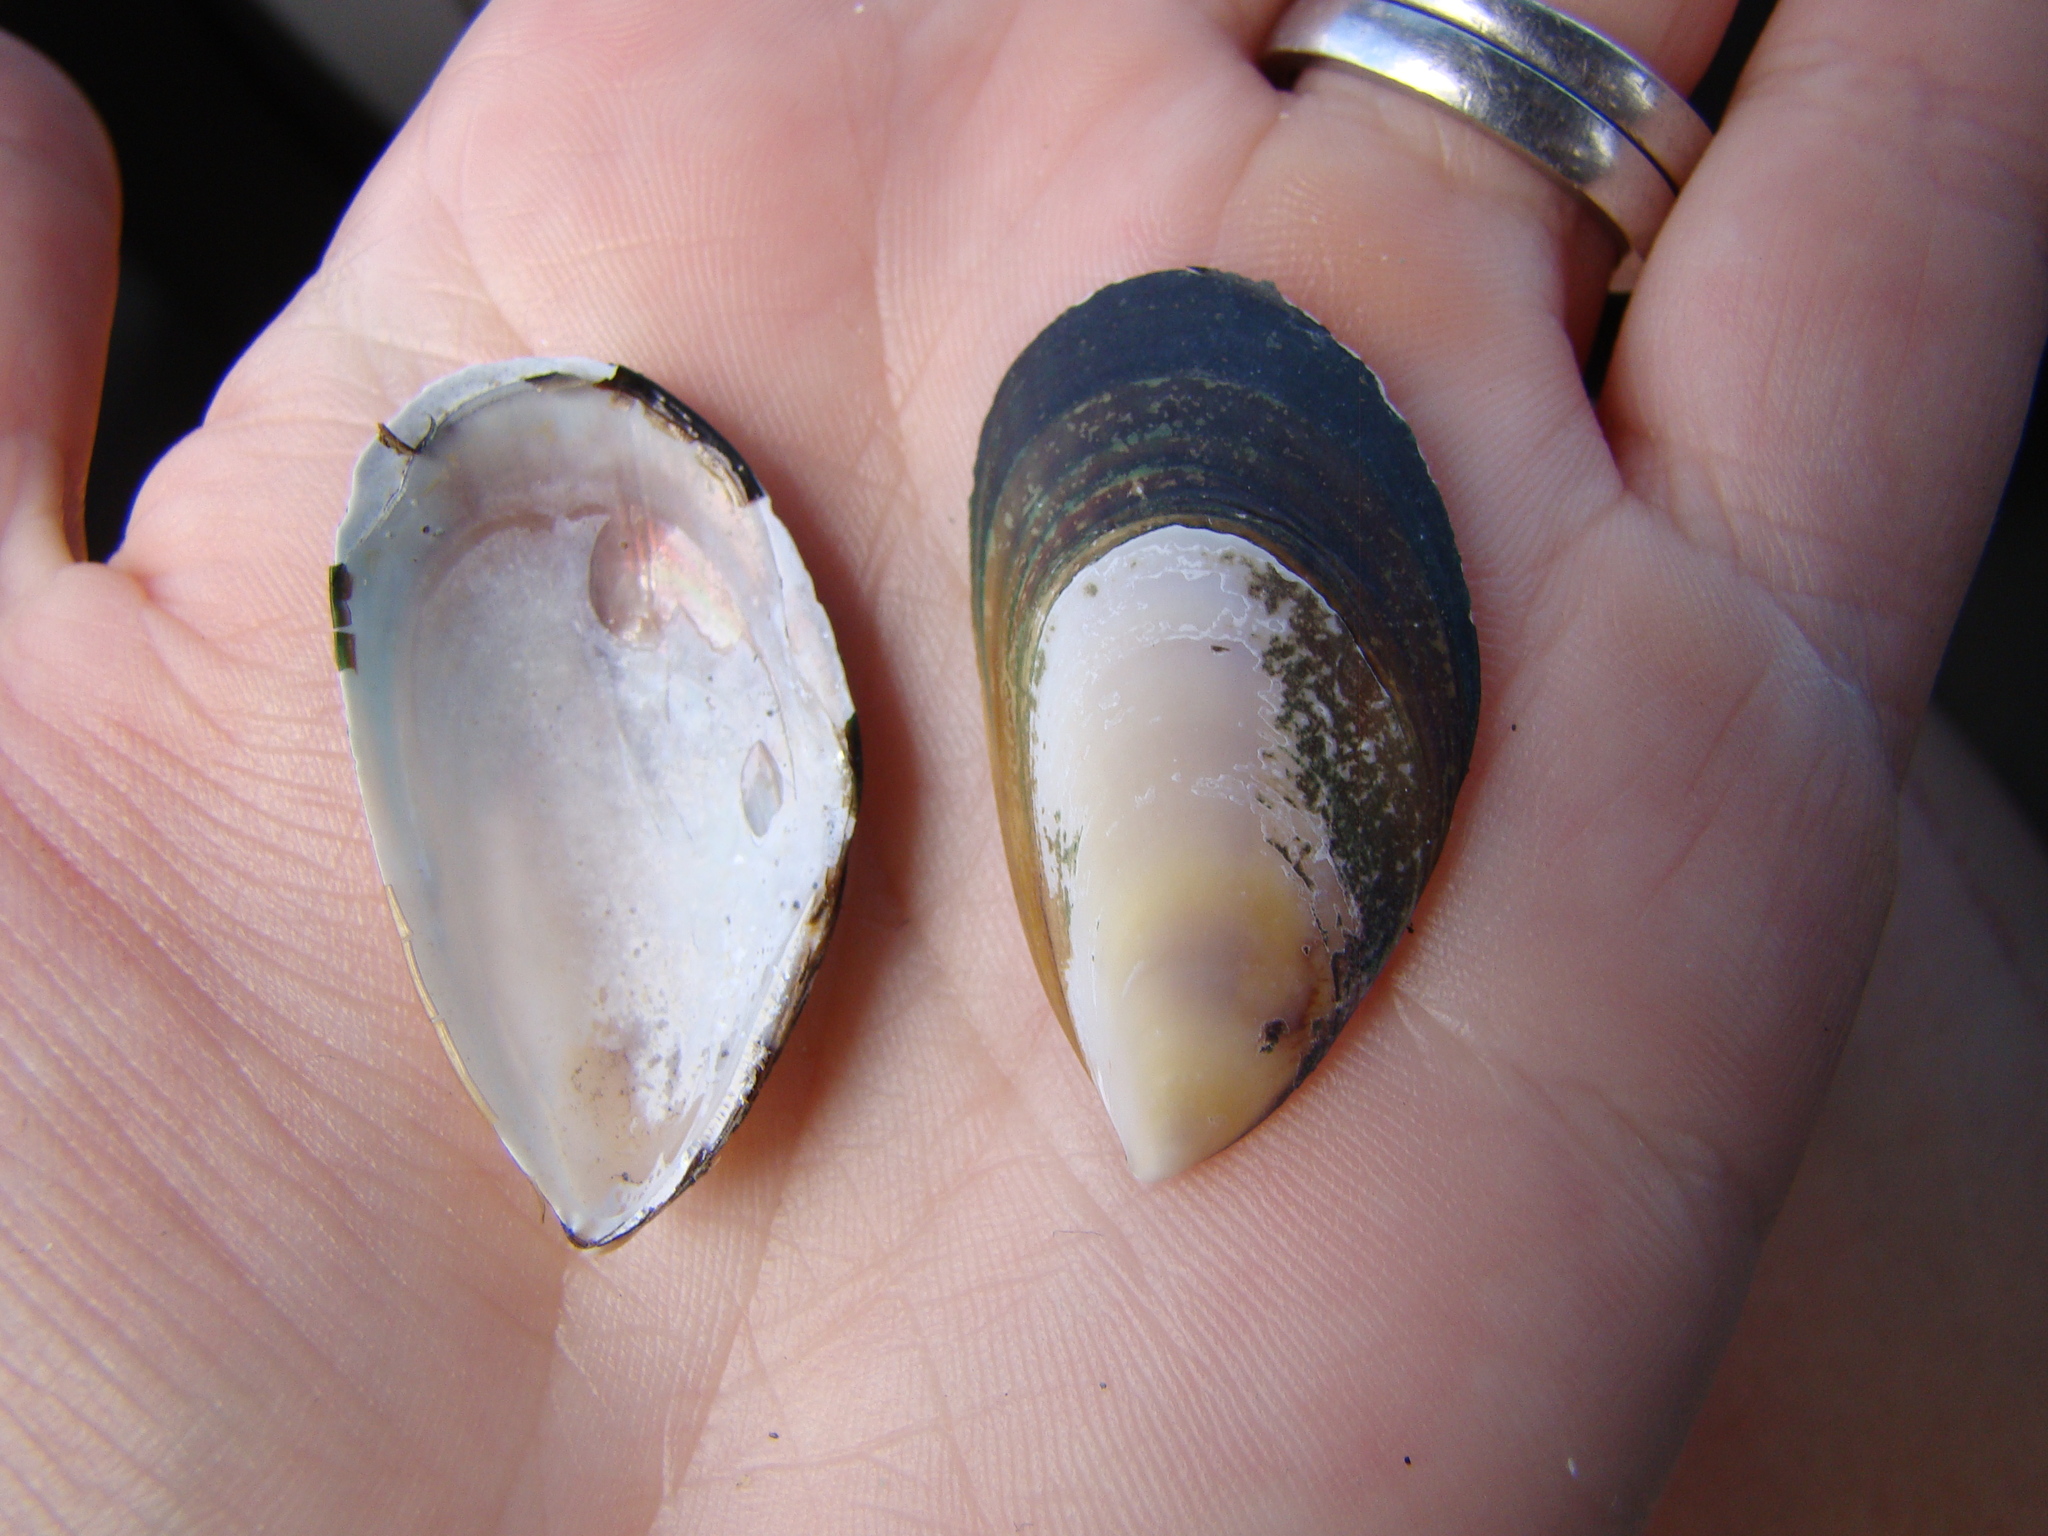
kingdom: Animalia
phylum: Mollusca
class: Bivalvia
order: Mytilida
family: Mytilidae
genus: Perna
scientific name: Perna canaliculus
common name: New zealand greenshelltm
